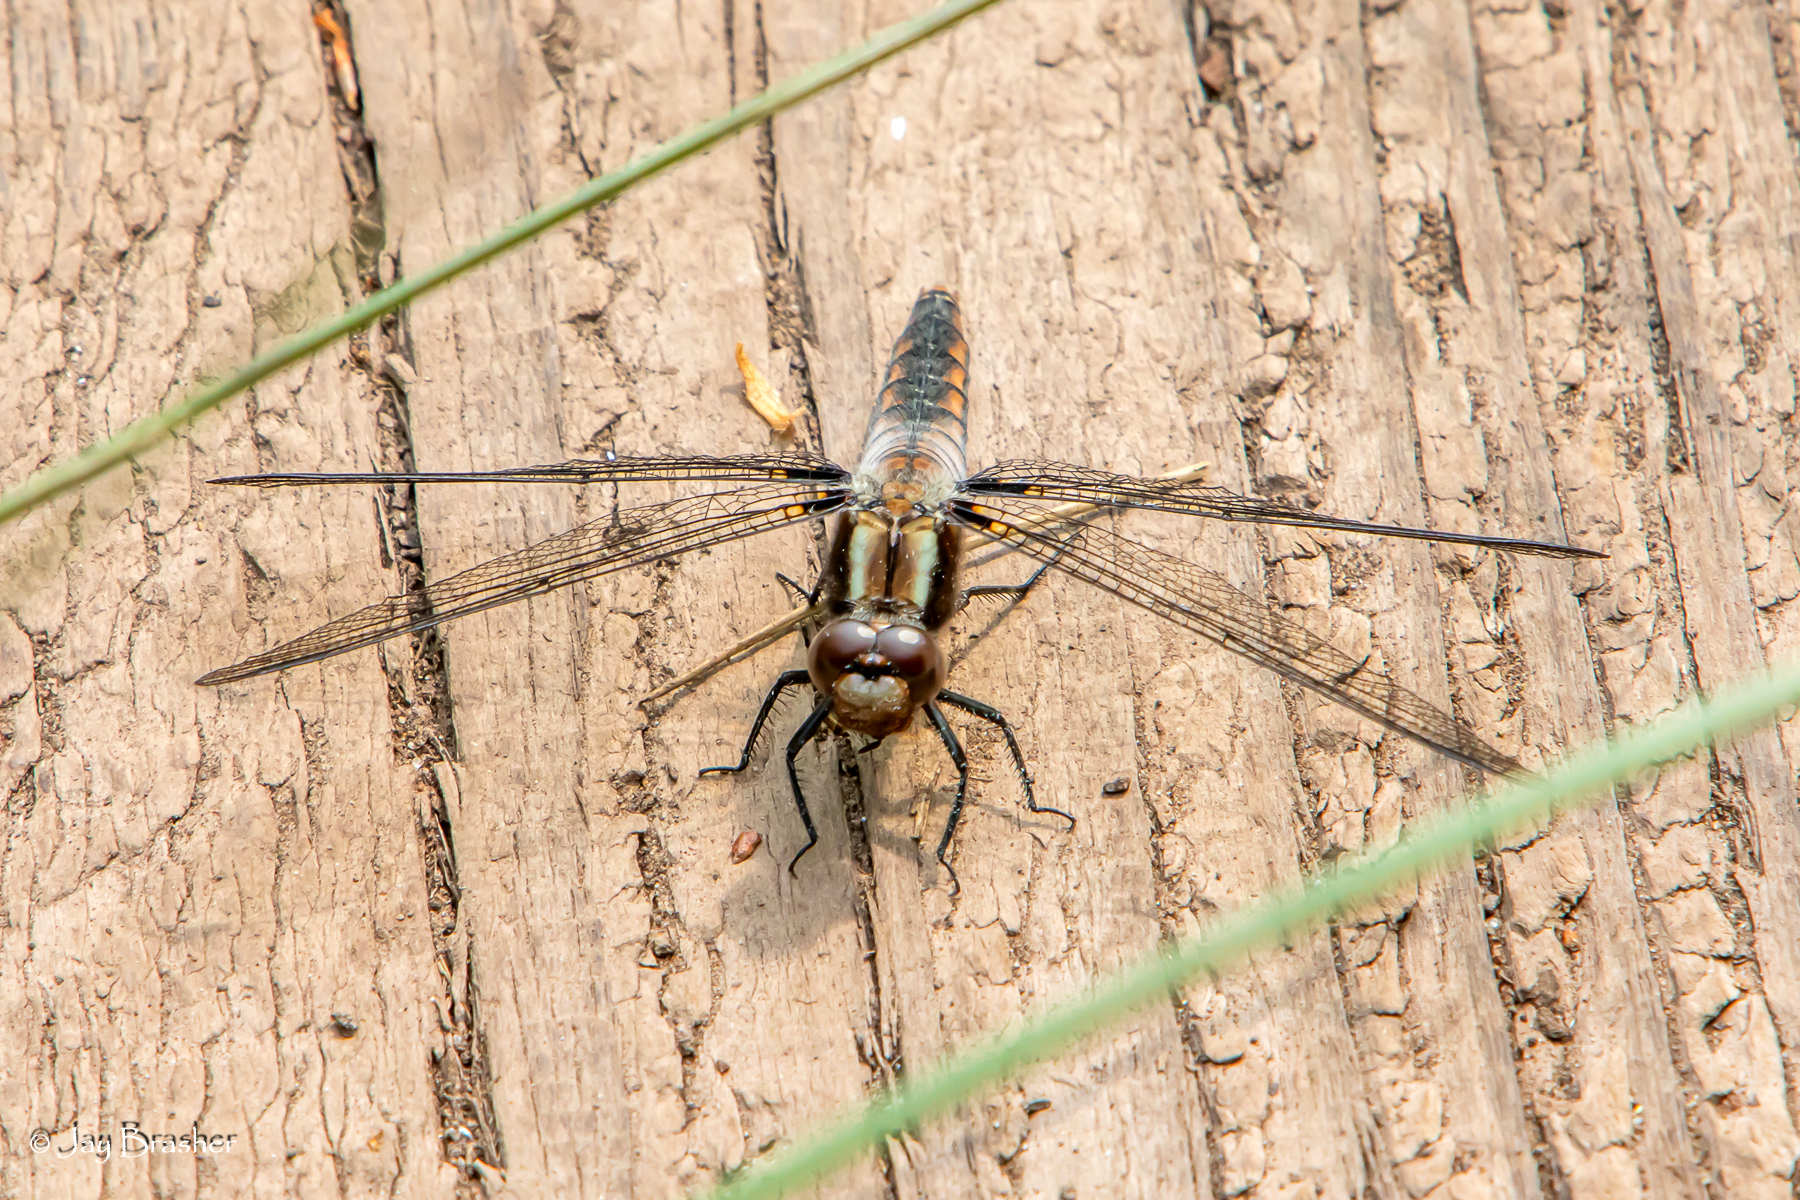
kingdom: Animalia
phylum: Arthropoda
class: Insecta
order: Odonata
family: Libellulidae
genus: Ladona
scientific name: Ladona julia
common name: Chalk-fronted corporal
